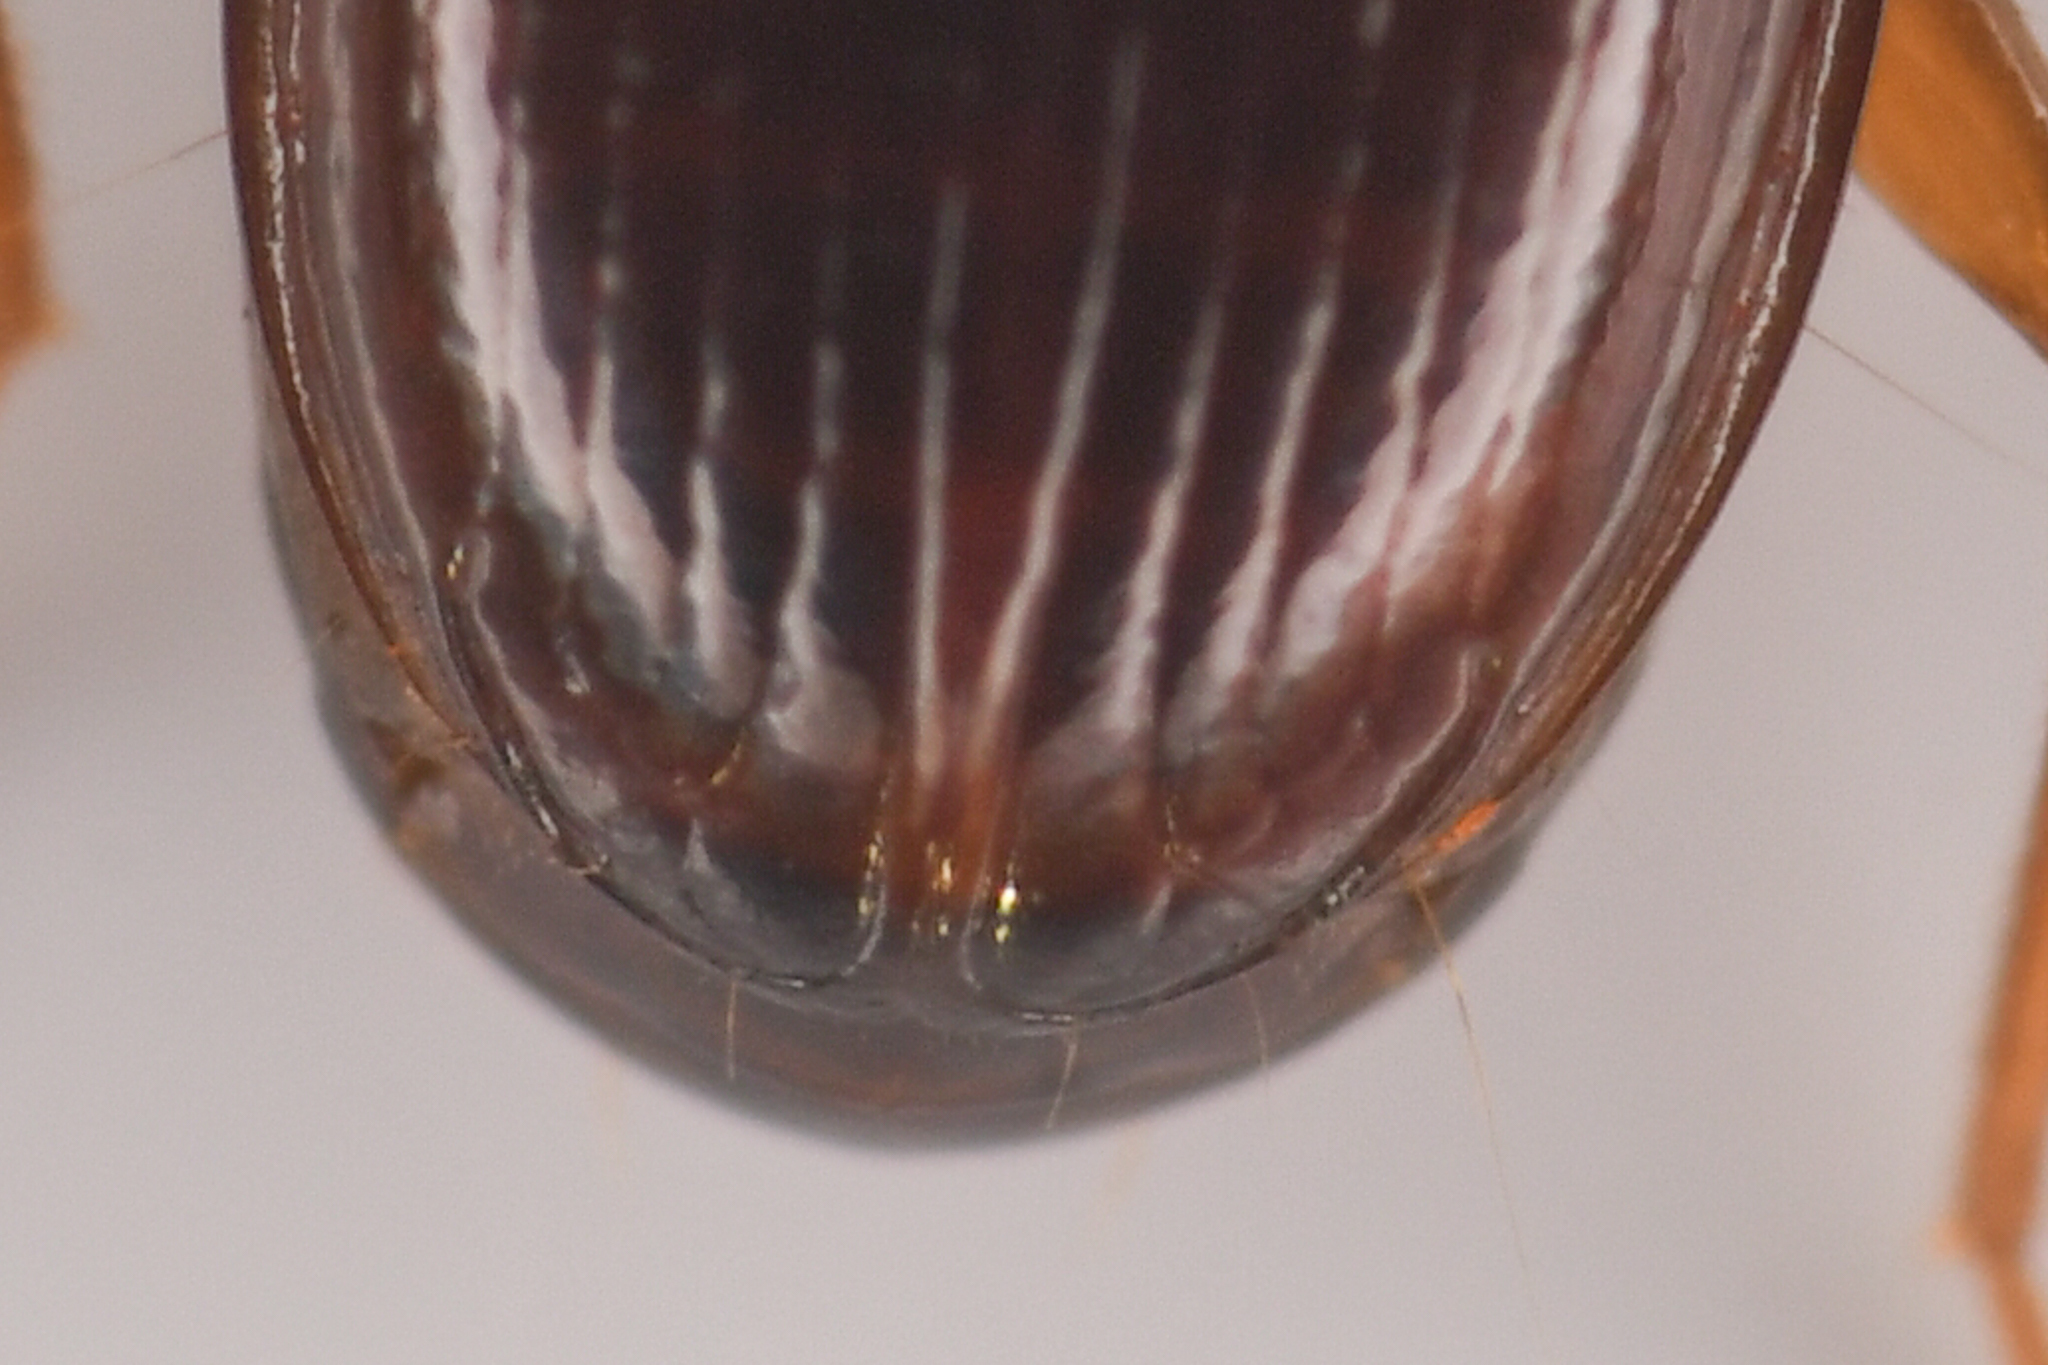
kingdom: Animalia
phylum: Arthropoda
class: Insecta
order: Coleoptera
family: Carabidae
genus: Trechus
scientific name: Trechus obtusus
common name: London riverbank ground beetle
